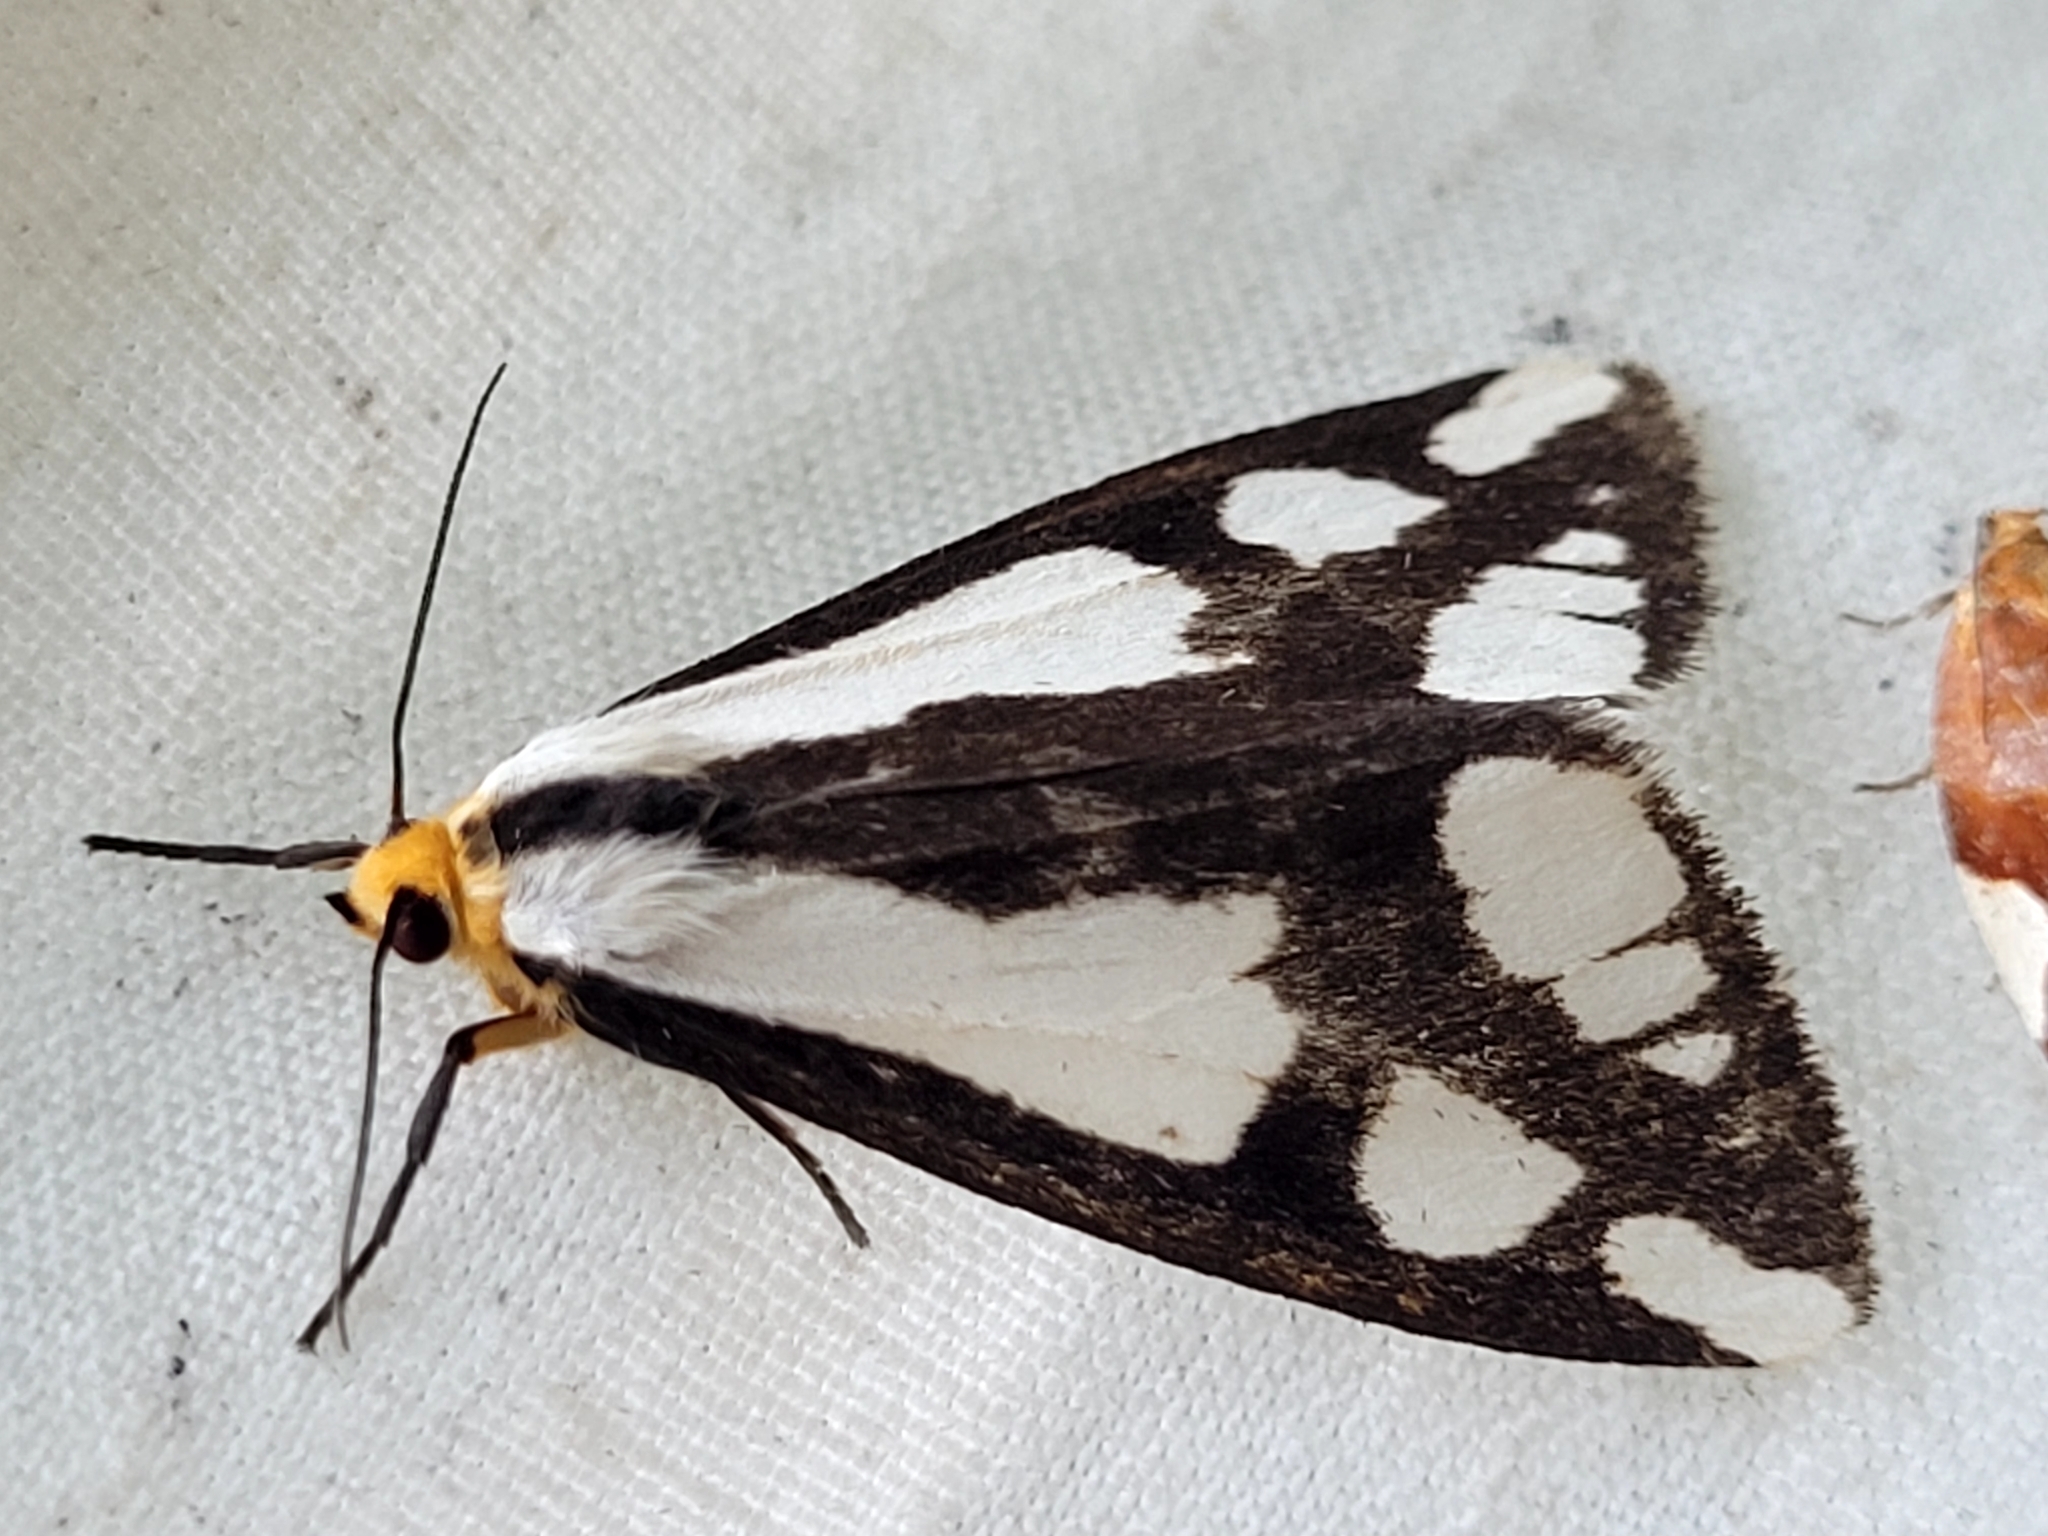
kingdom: Animalia
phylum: Arthropoda
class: Insecta
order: Lepidoptera
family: Erebidae
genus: Haploa
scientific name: Haploa lecontei
